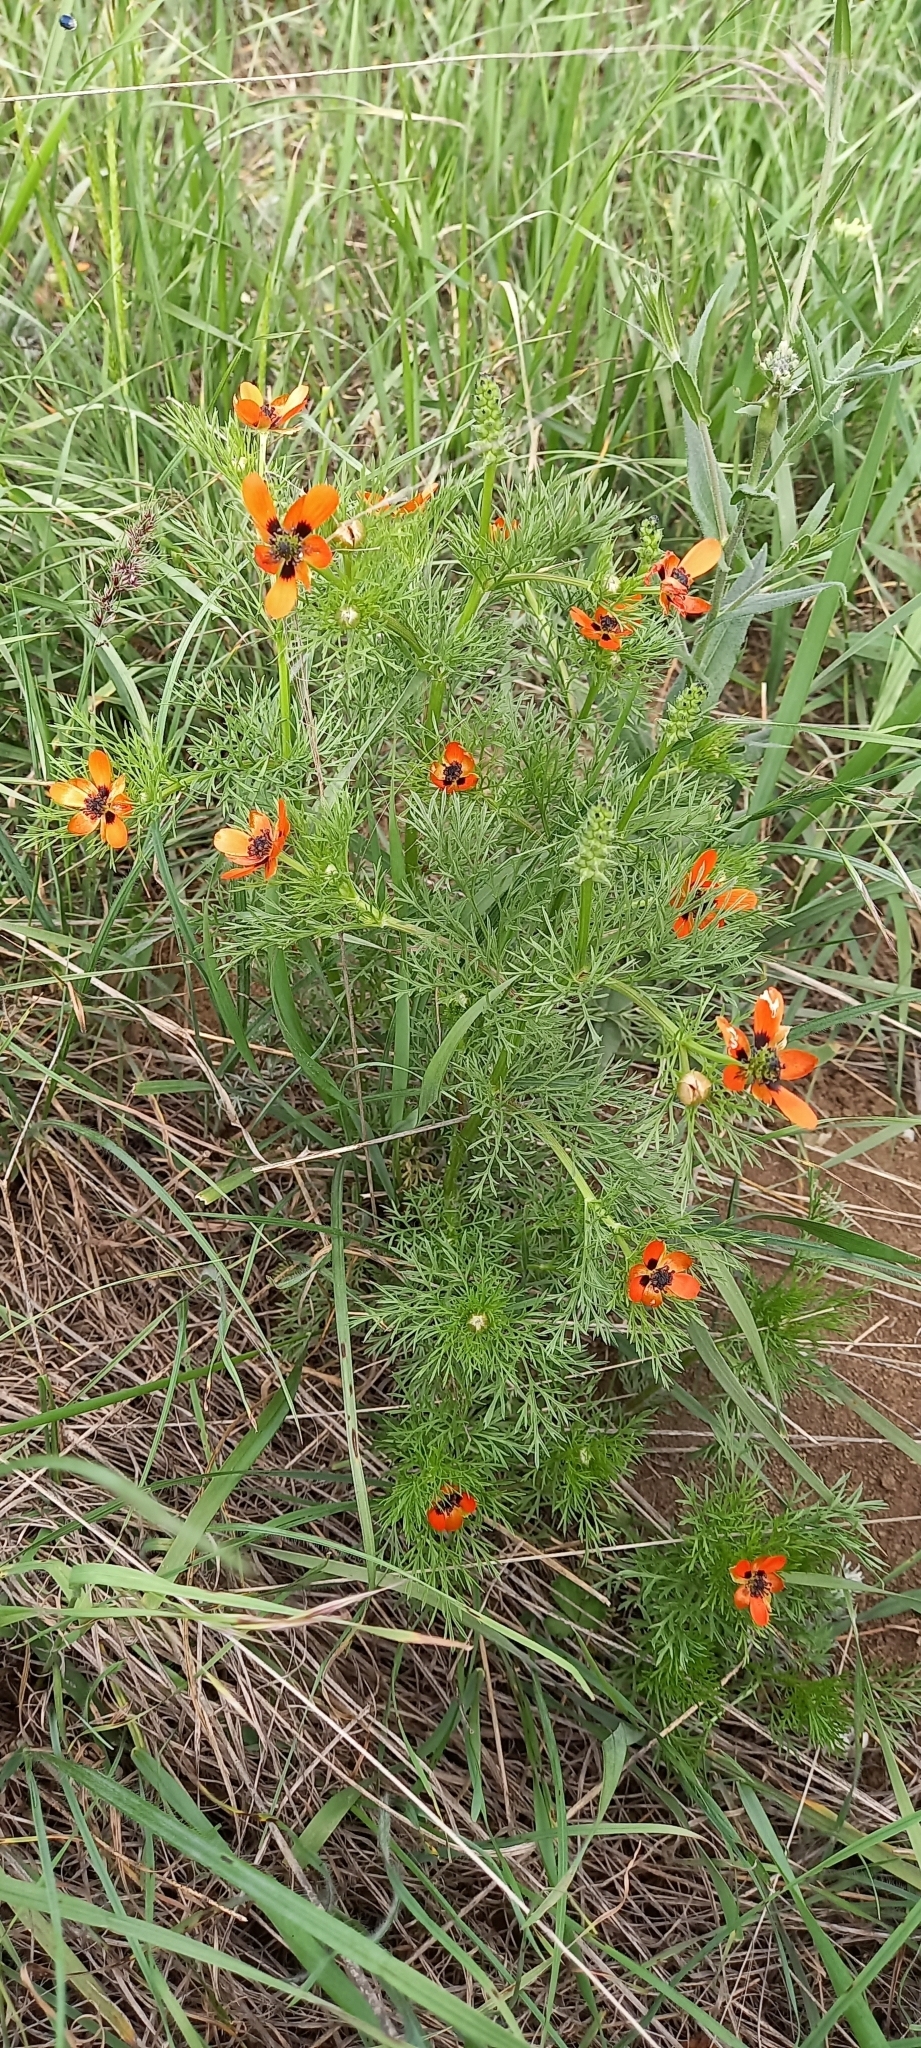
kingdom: Plantae
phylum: Tracheophyta
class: Magnoliopsida
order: Ranunculales
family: Ranunculaceae
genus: Adonis
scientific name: Adonis aestivalis
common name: Summer pheasant's-eye
